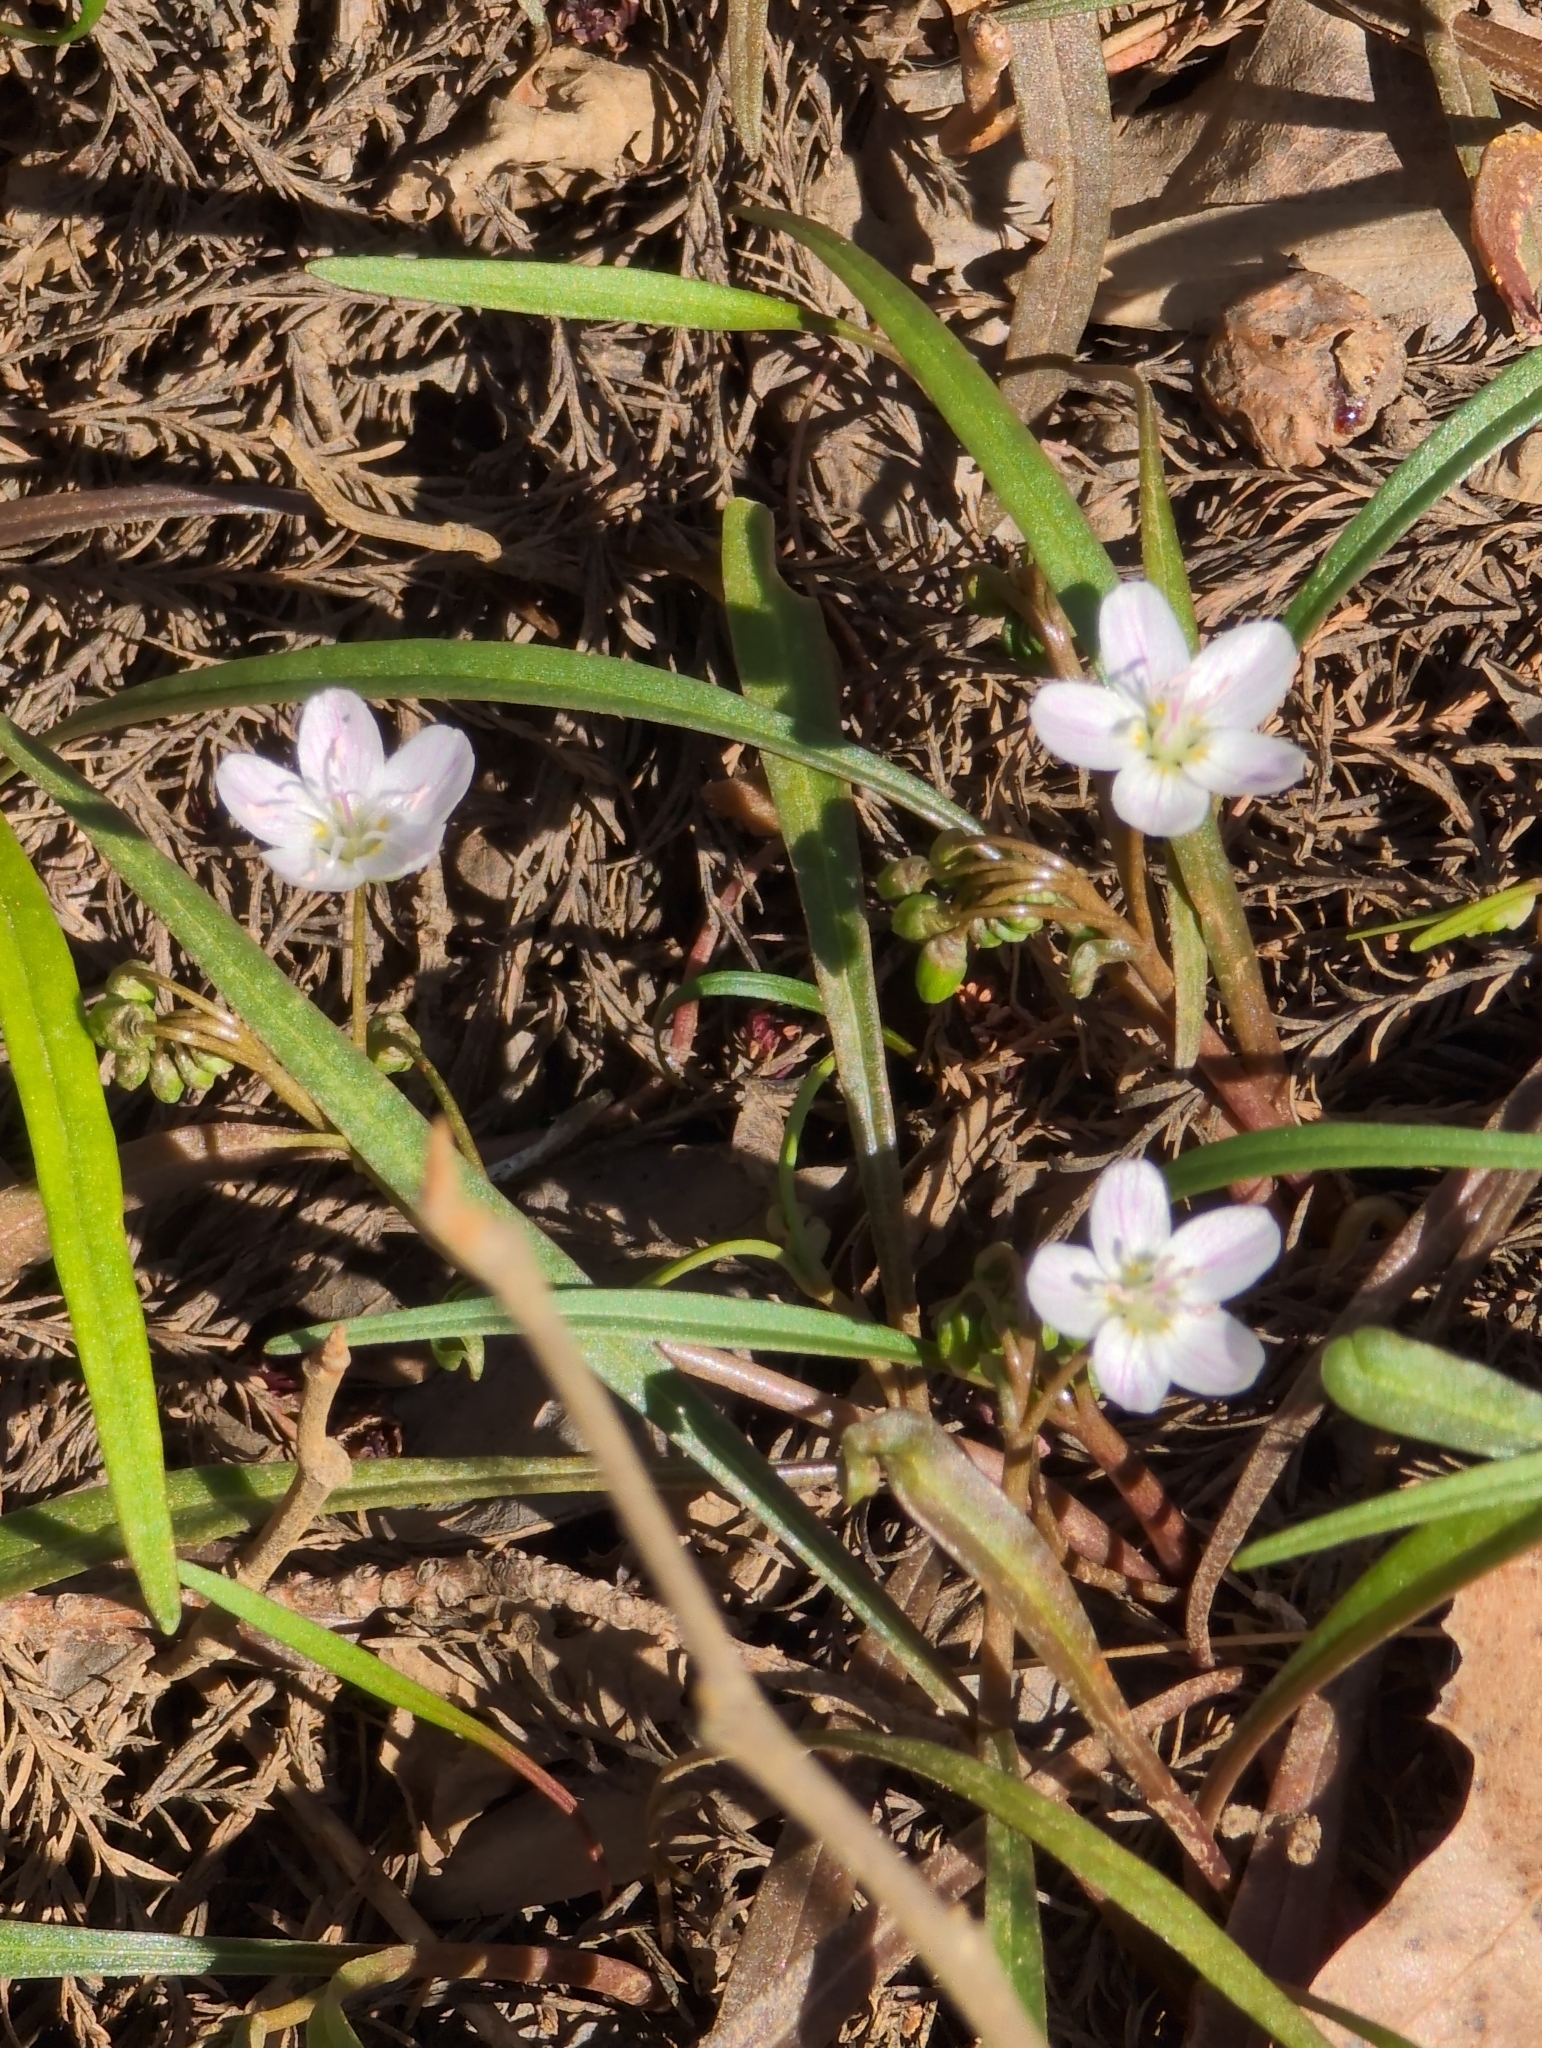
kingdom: Plantae
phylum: Tracheophyta
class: Magnoliopsida
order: Caryophyllales
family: Montiaceae
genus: Claytonia
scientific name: Claytonia virginica
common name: Virginia springbeauty
